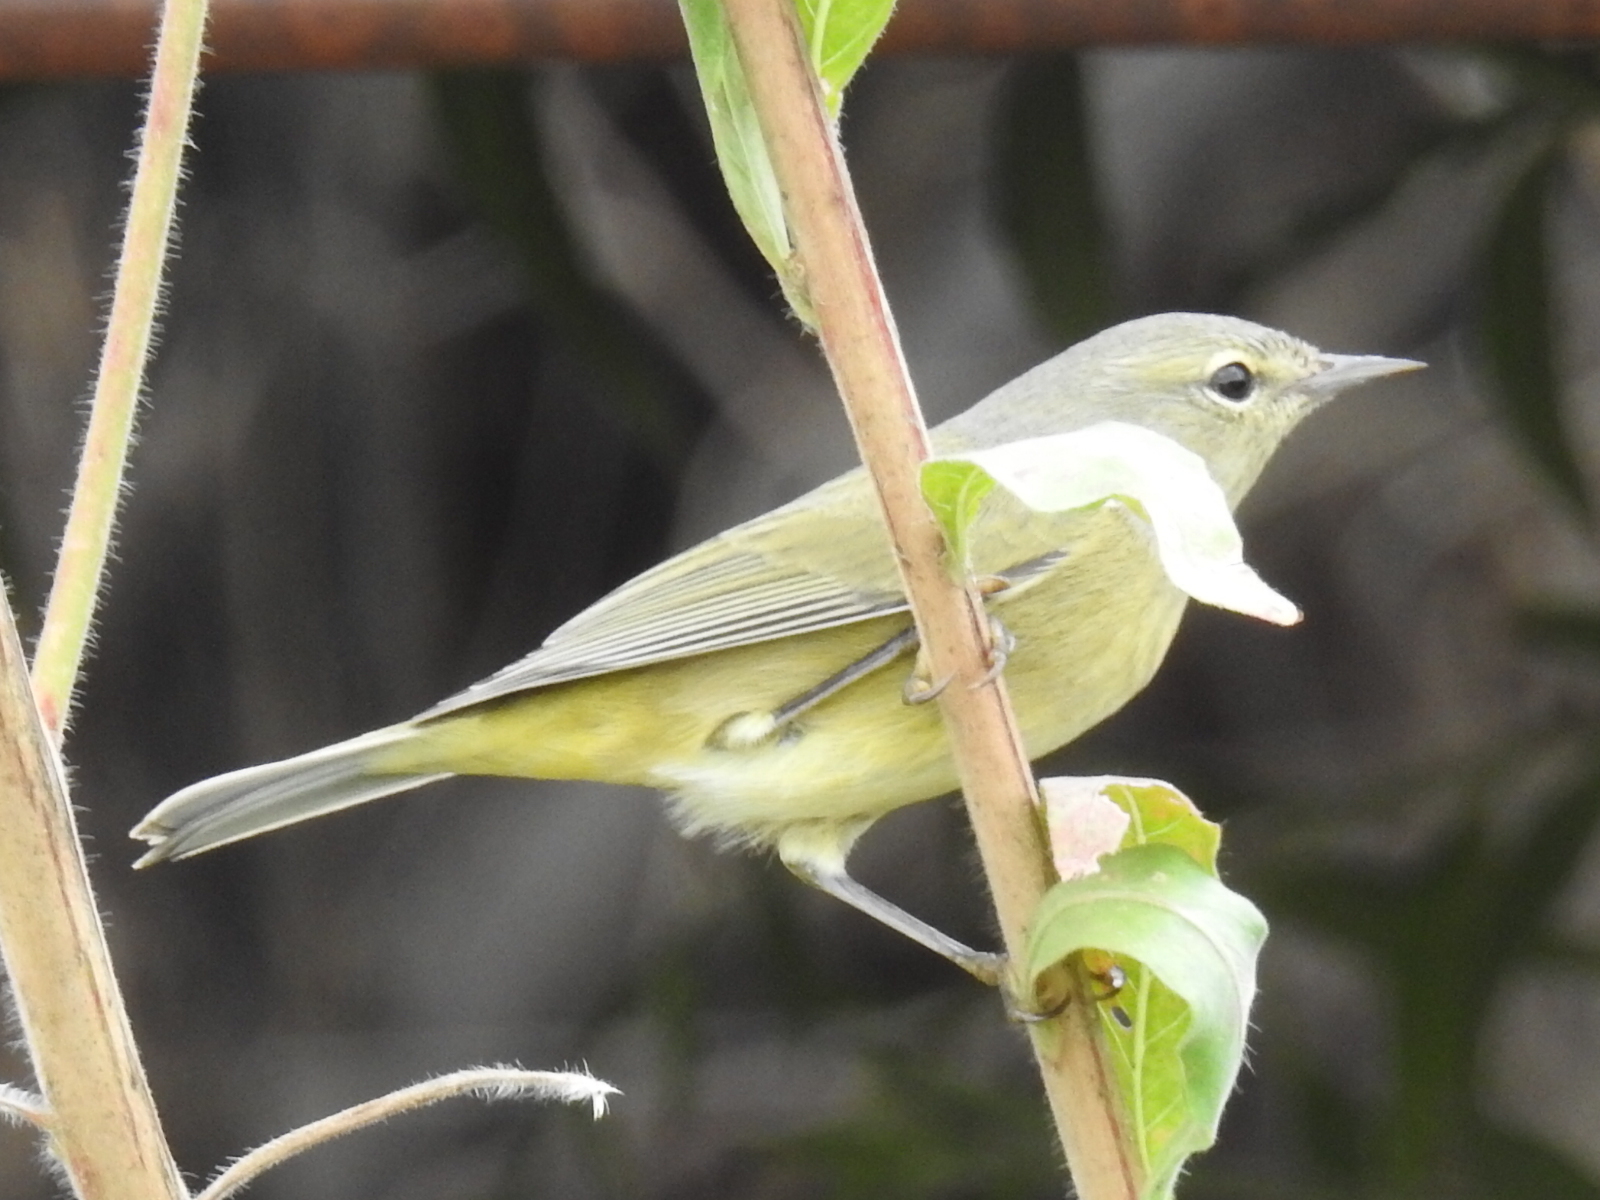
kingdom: Animalia
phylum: Chordata
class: Aves
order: Passeriformes
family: Parulidae
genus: Leiothlypis
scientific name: Leiothlypis celata
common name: Orange-crowned warbler
